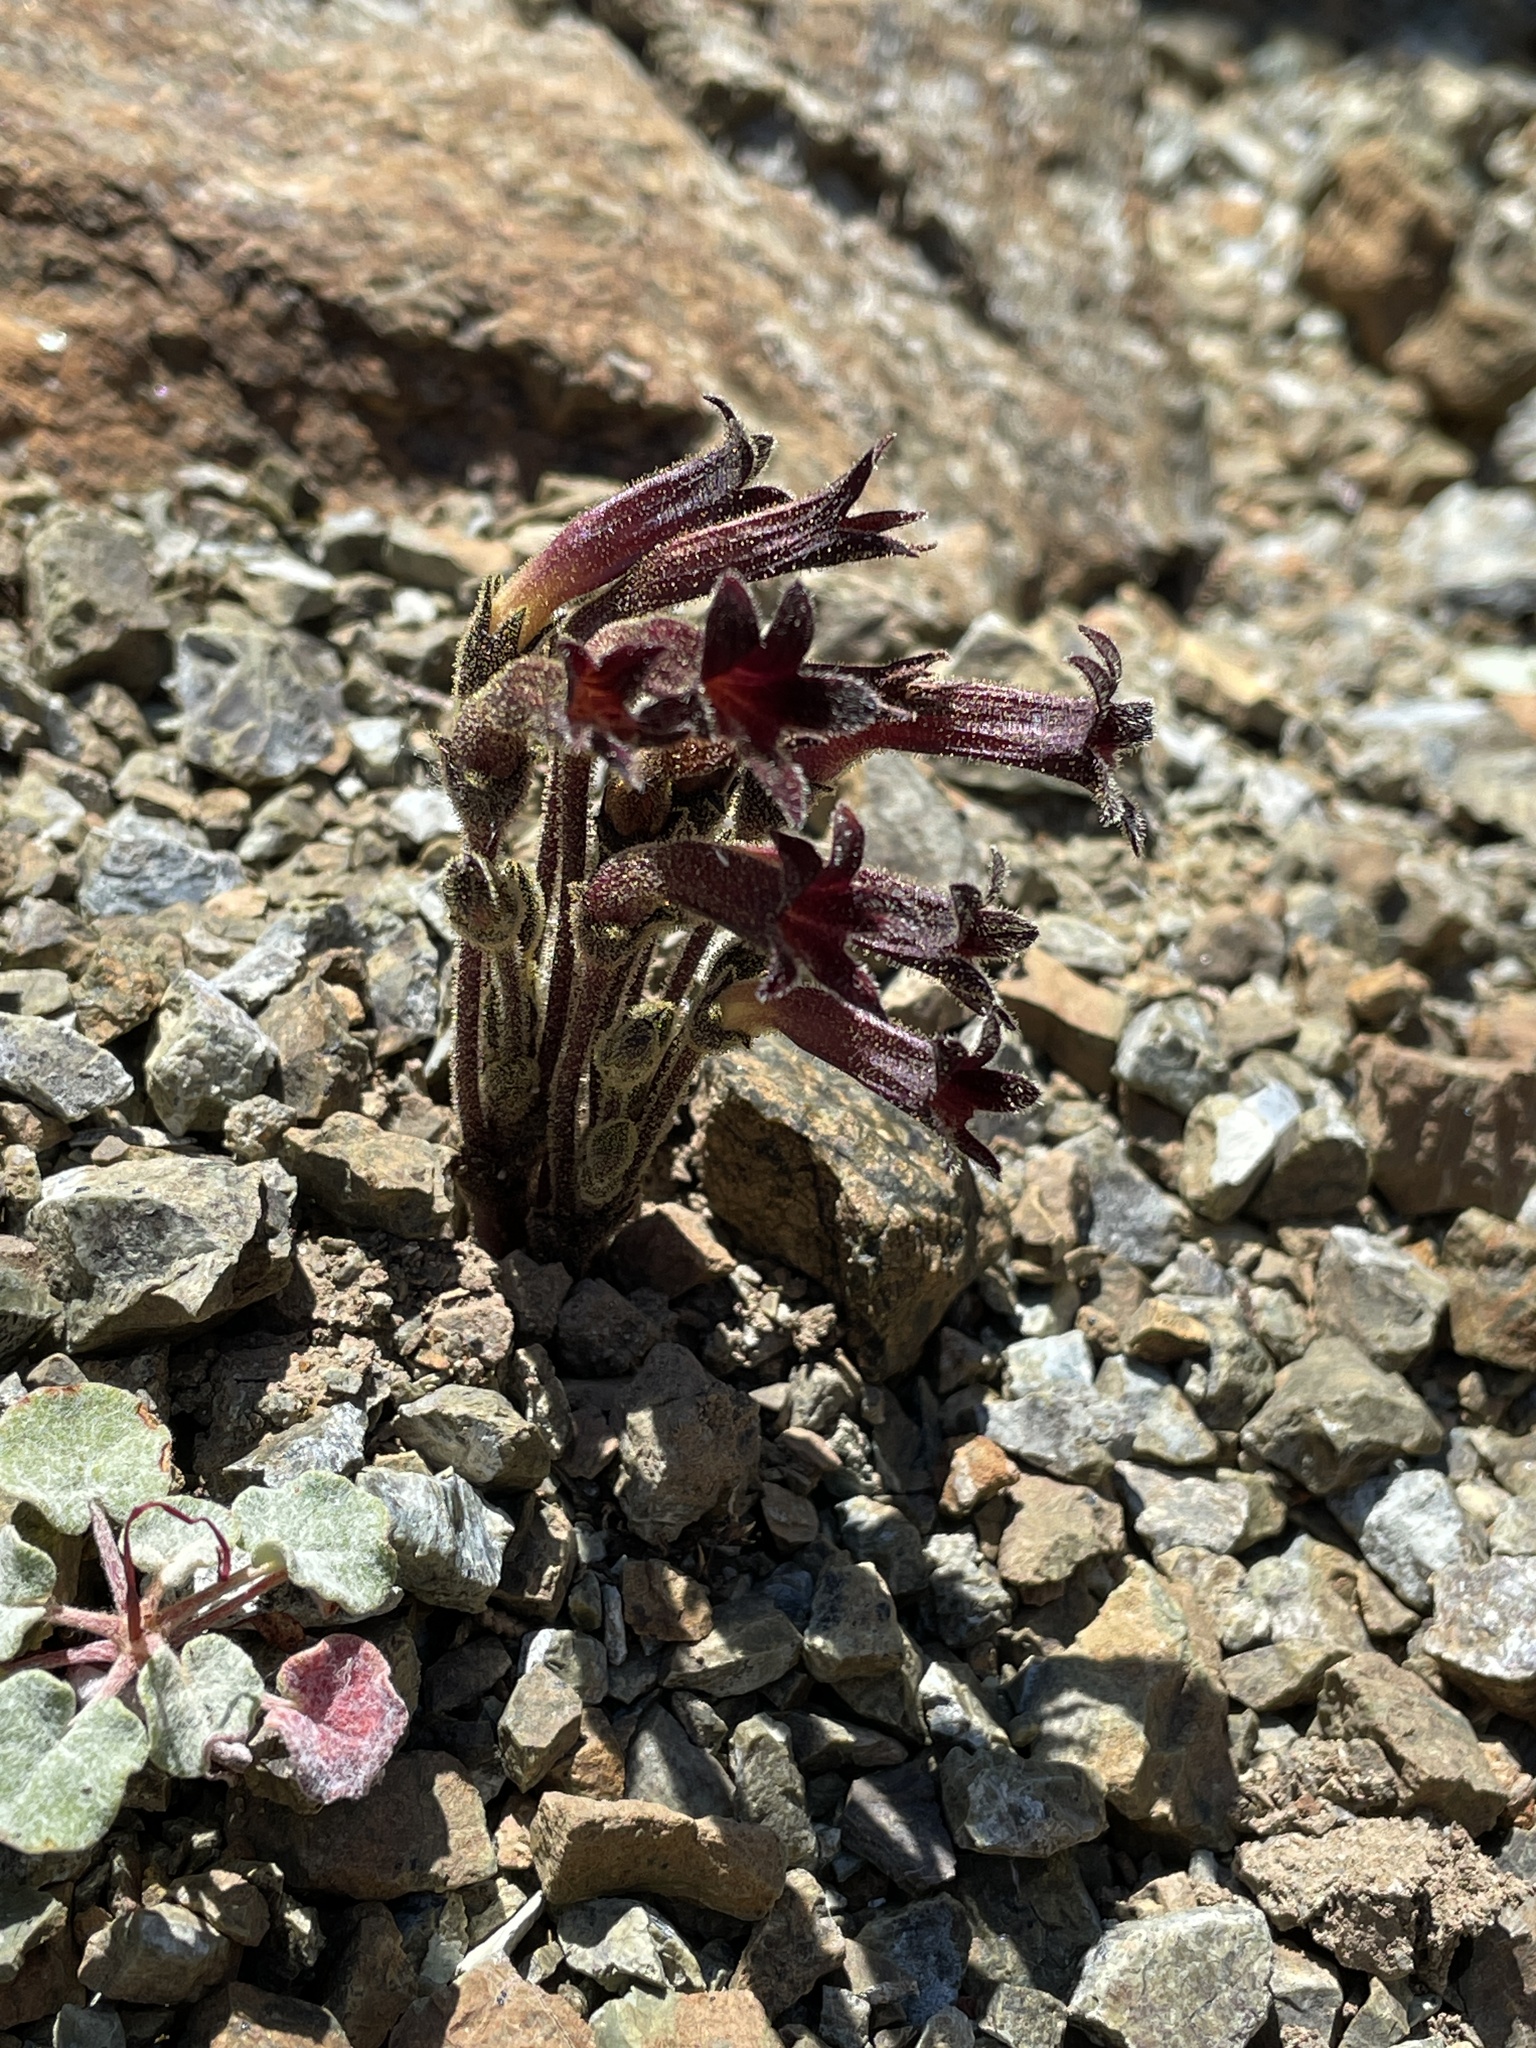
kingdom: Plantae
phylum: Tracheophyta
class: Magnoliopsida
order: Lamiales
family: Orobanchaceae
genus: Aphyllon
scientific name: Aphyllon franciscanum
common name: San francisco broomrape
